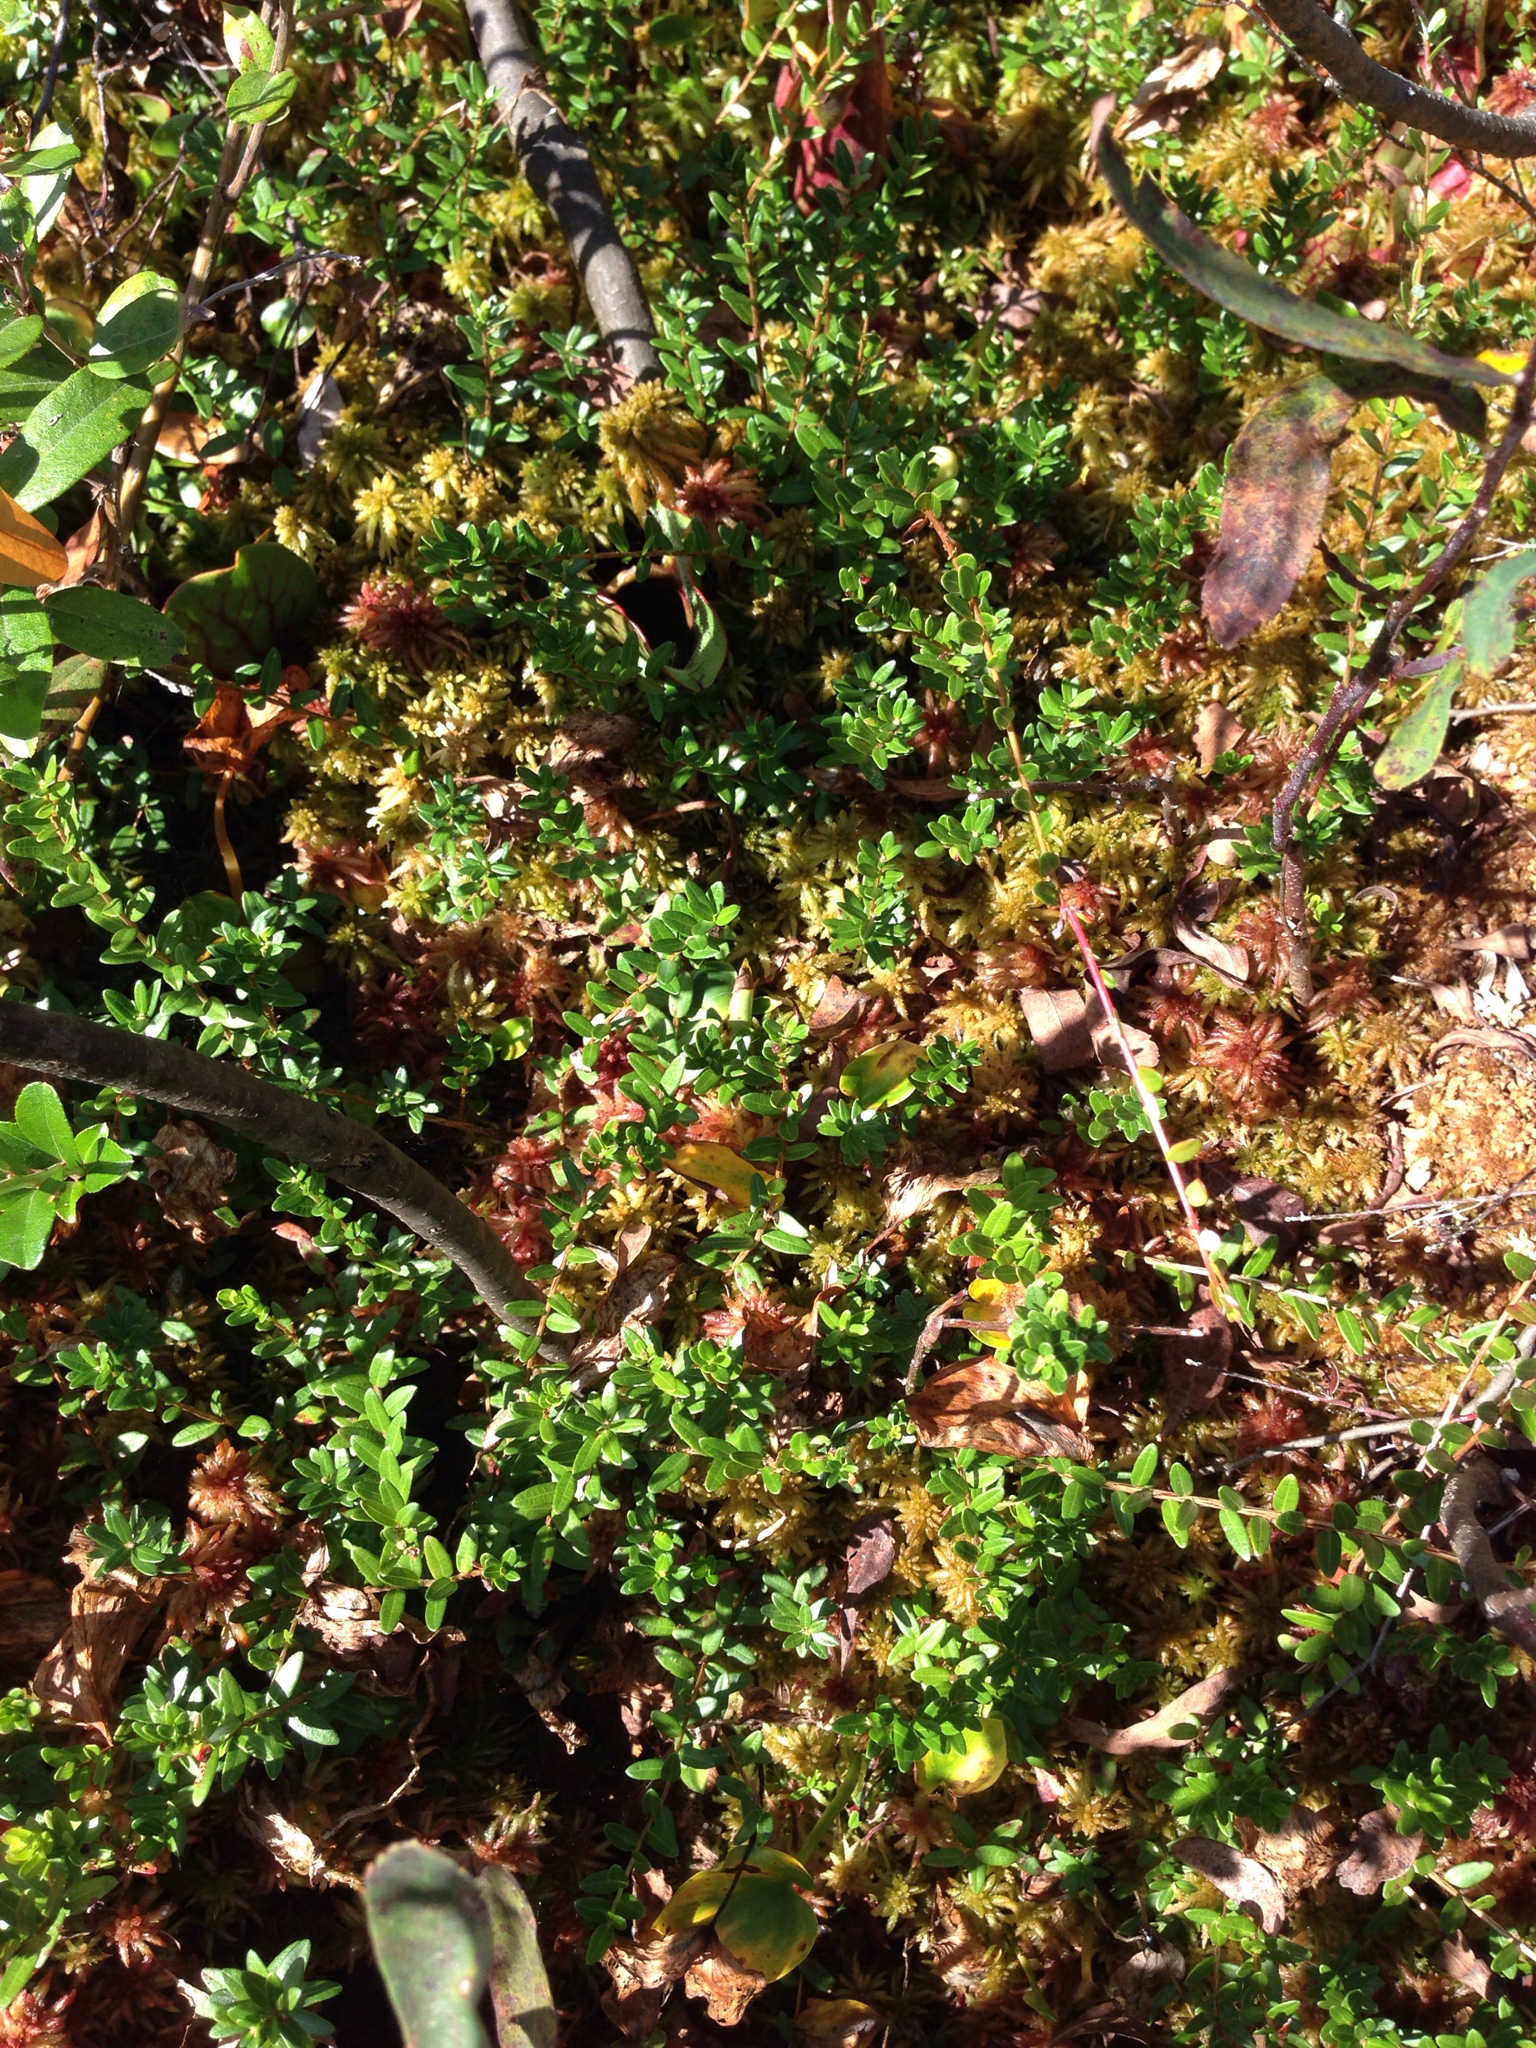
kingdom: Plantae
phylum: Tracheophyta
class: Magnoliopsida
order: Ericales
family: Ericaceae
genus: Vaccinium
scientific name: Vaccinium macrocarpon
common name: American cranberry
